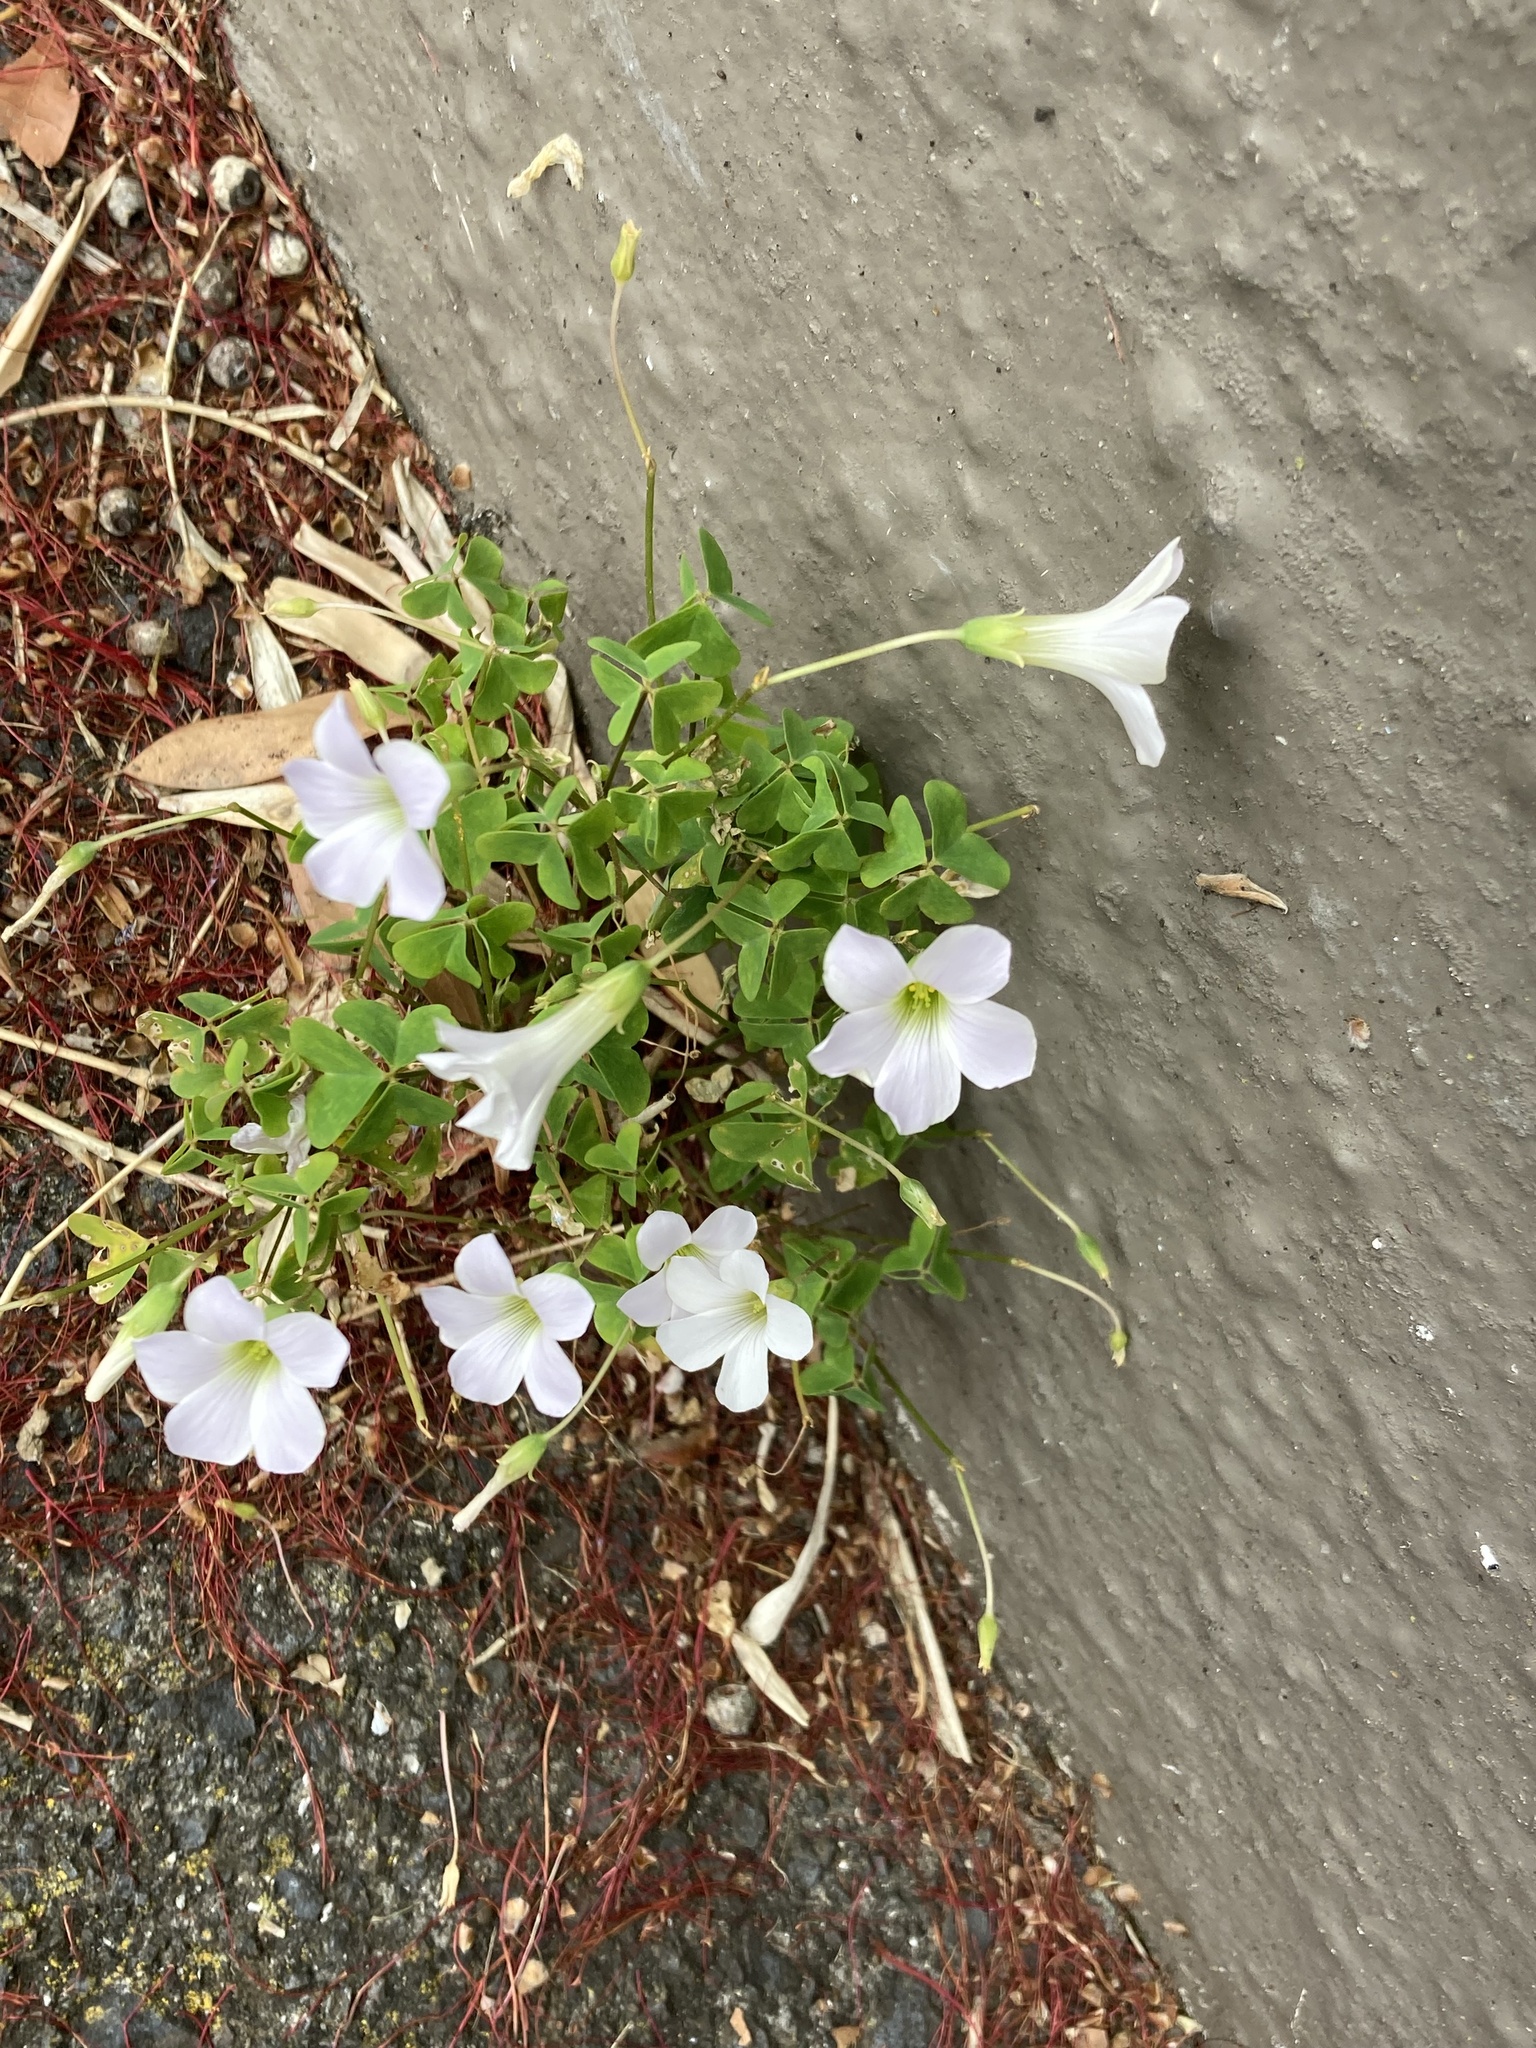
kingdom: Plantae
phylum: Tracheophyta
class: Magnoliopsida
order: Oxalidales
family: Oxalidaceae
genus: Oxalis
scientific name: Oxalis incarnata
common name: Pale pink-sorrel
